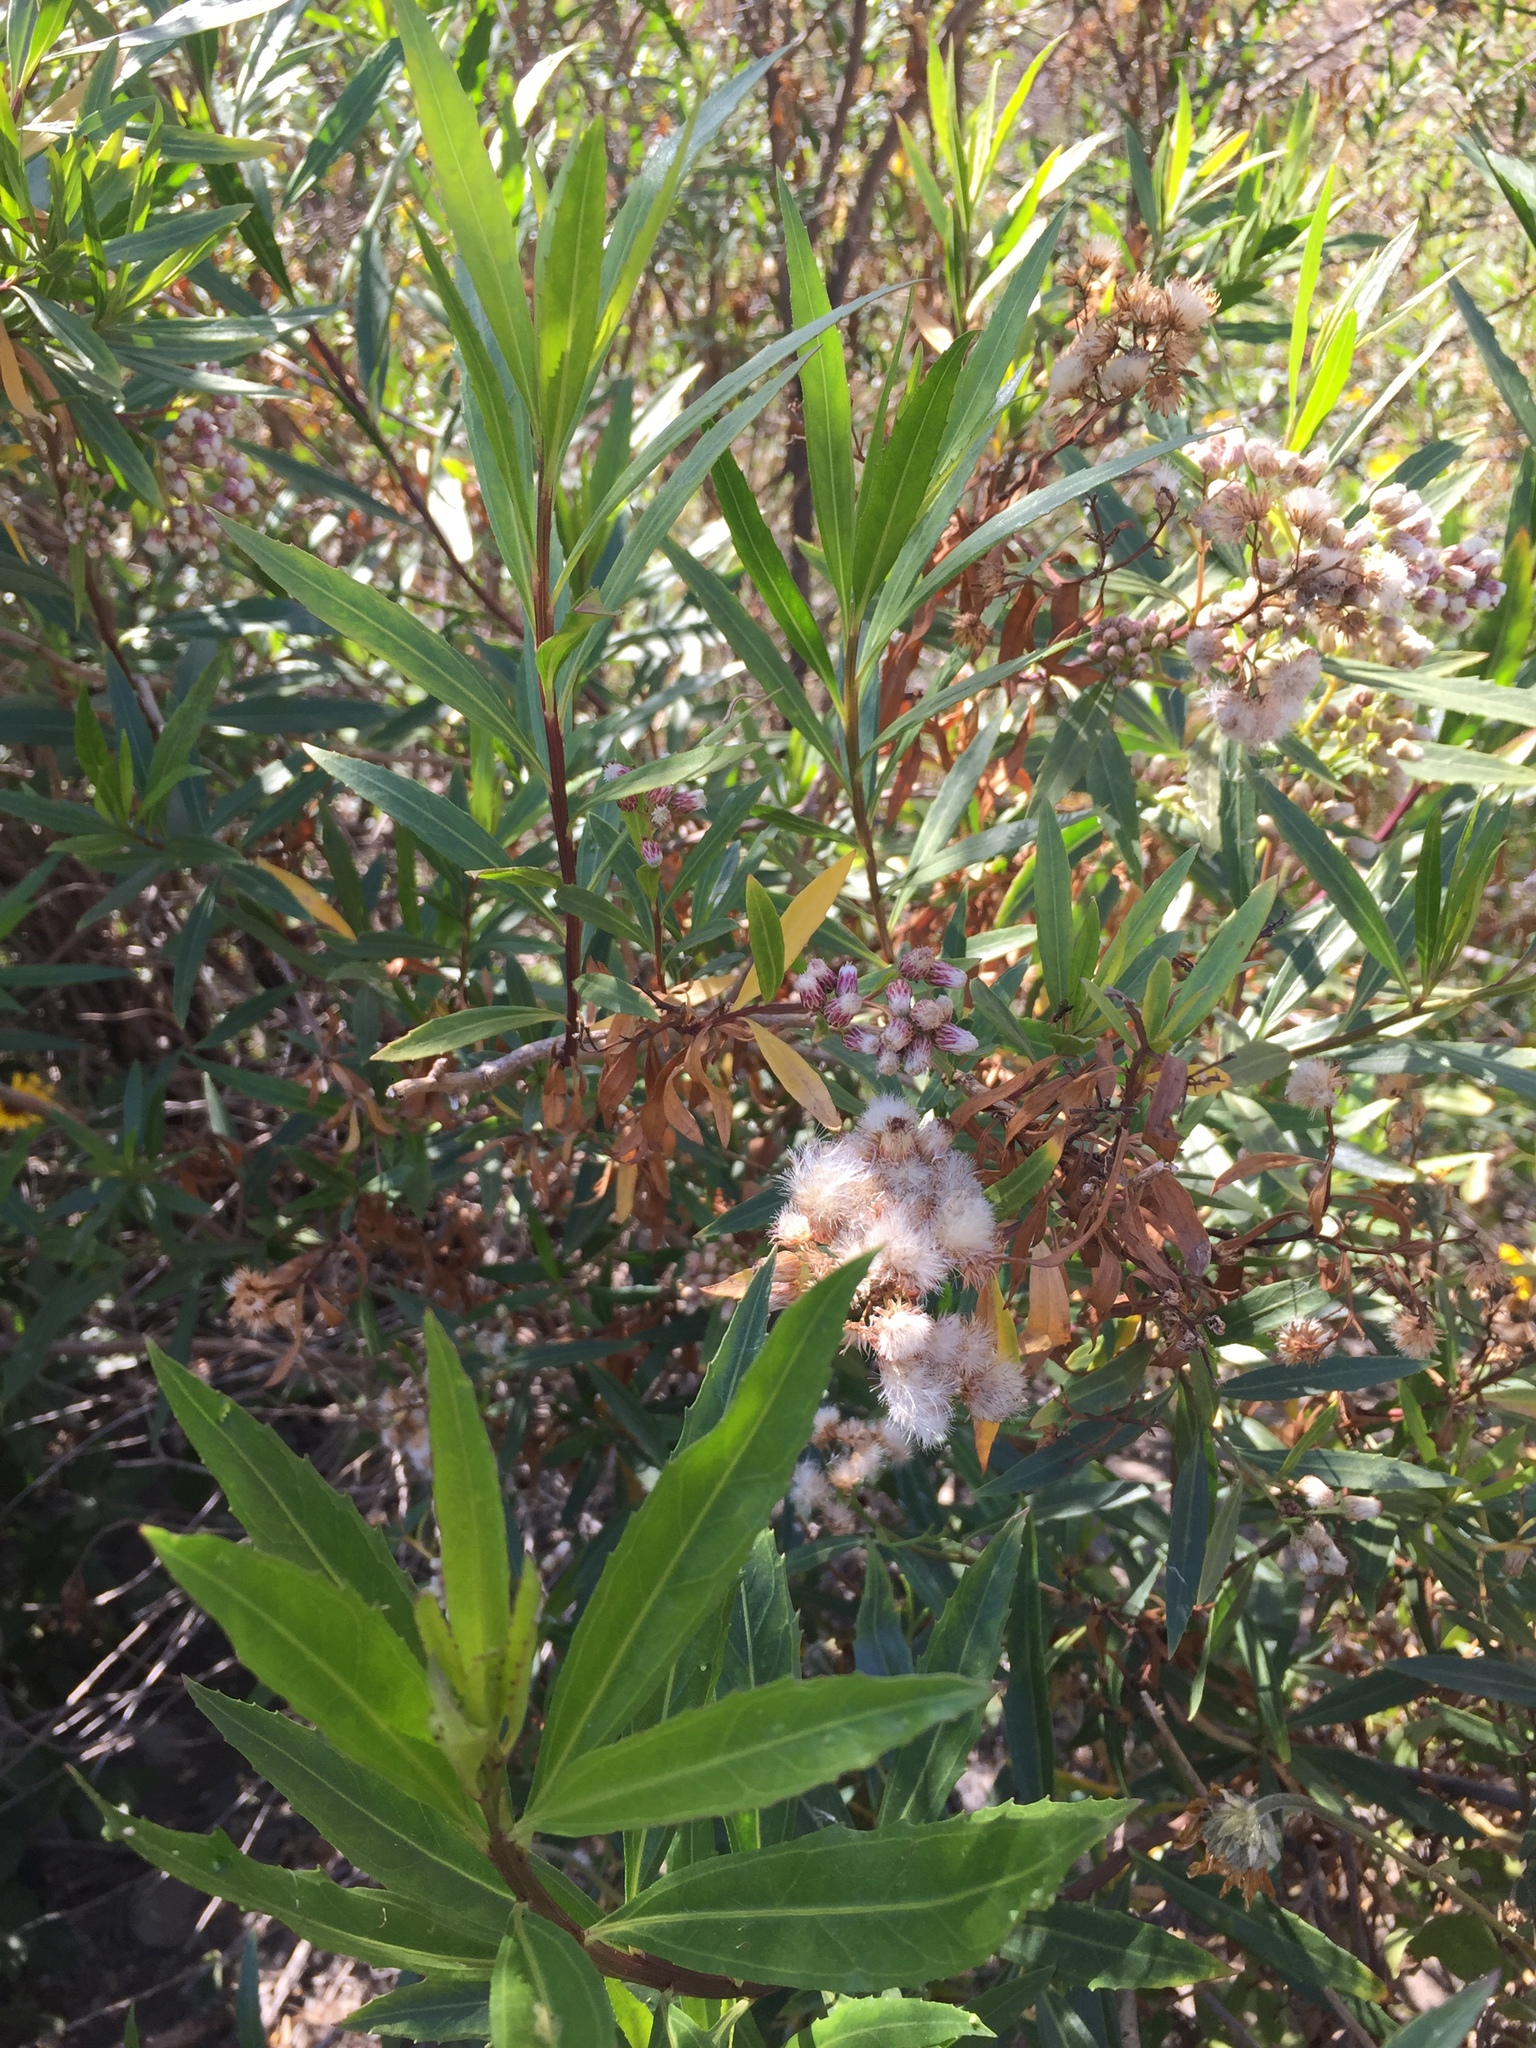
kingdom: Plantae
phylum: Tracheophyta
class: Magnoliopsida
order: Asterales
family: Asteraceae
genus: Baccharis
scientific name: Baccharis salicifolia
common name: Sticky baccharis
